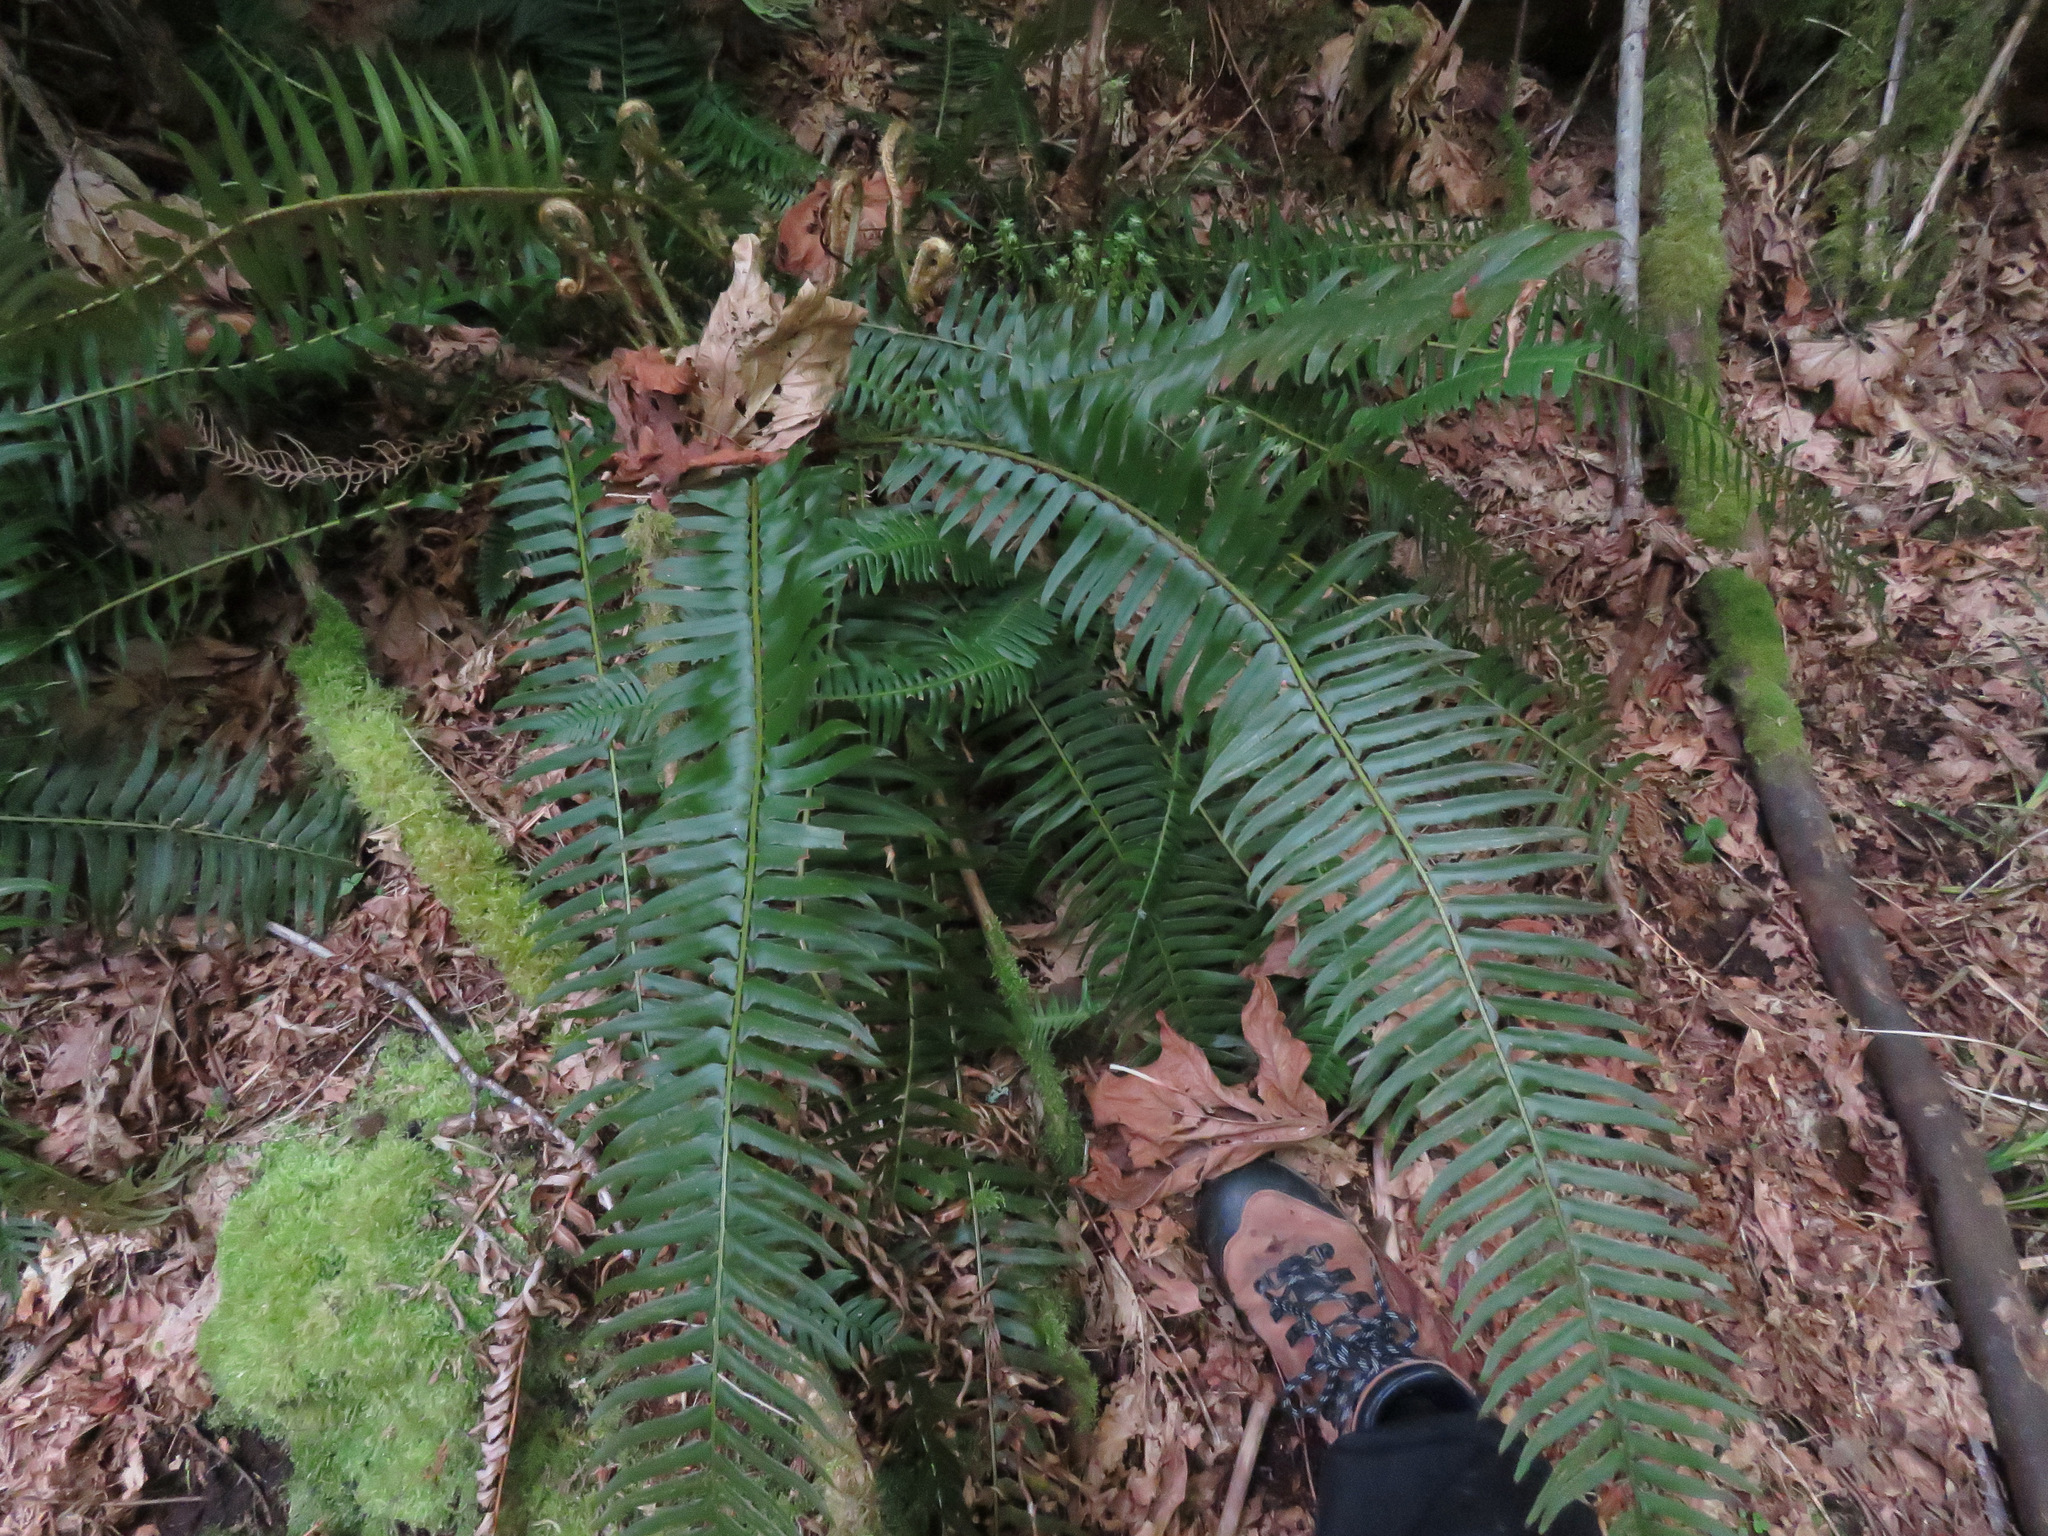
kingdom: Plantae
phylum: Tracheophyta
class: Polypodiopsida
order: Polypodiales
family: Dryopteridaceae
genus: Polystichum
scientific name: Polystichum munitum
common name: Western sword-fern
